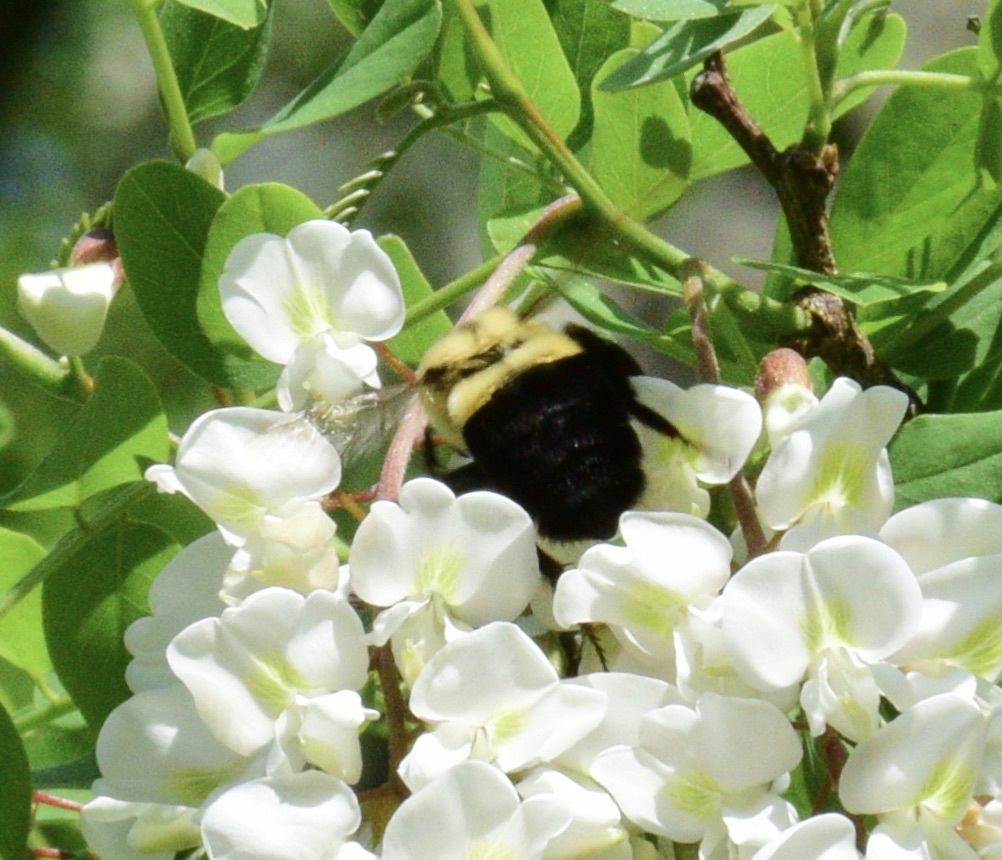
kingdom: Animalia
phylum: Arthropoda
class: Insecta
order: Hymenoptera
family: Apidae
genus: Bombus
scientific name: Bombus impatiens
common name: Common eastern bumble bee
